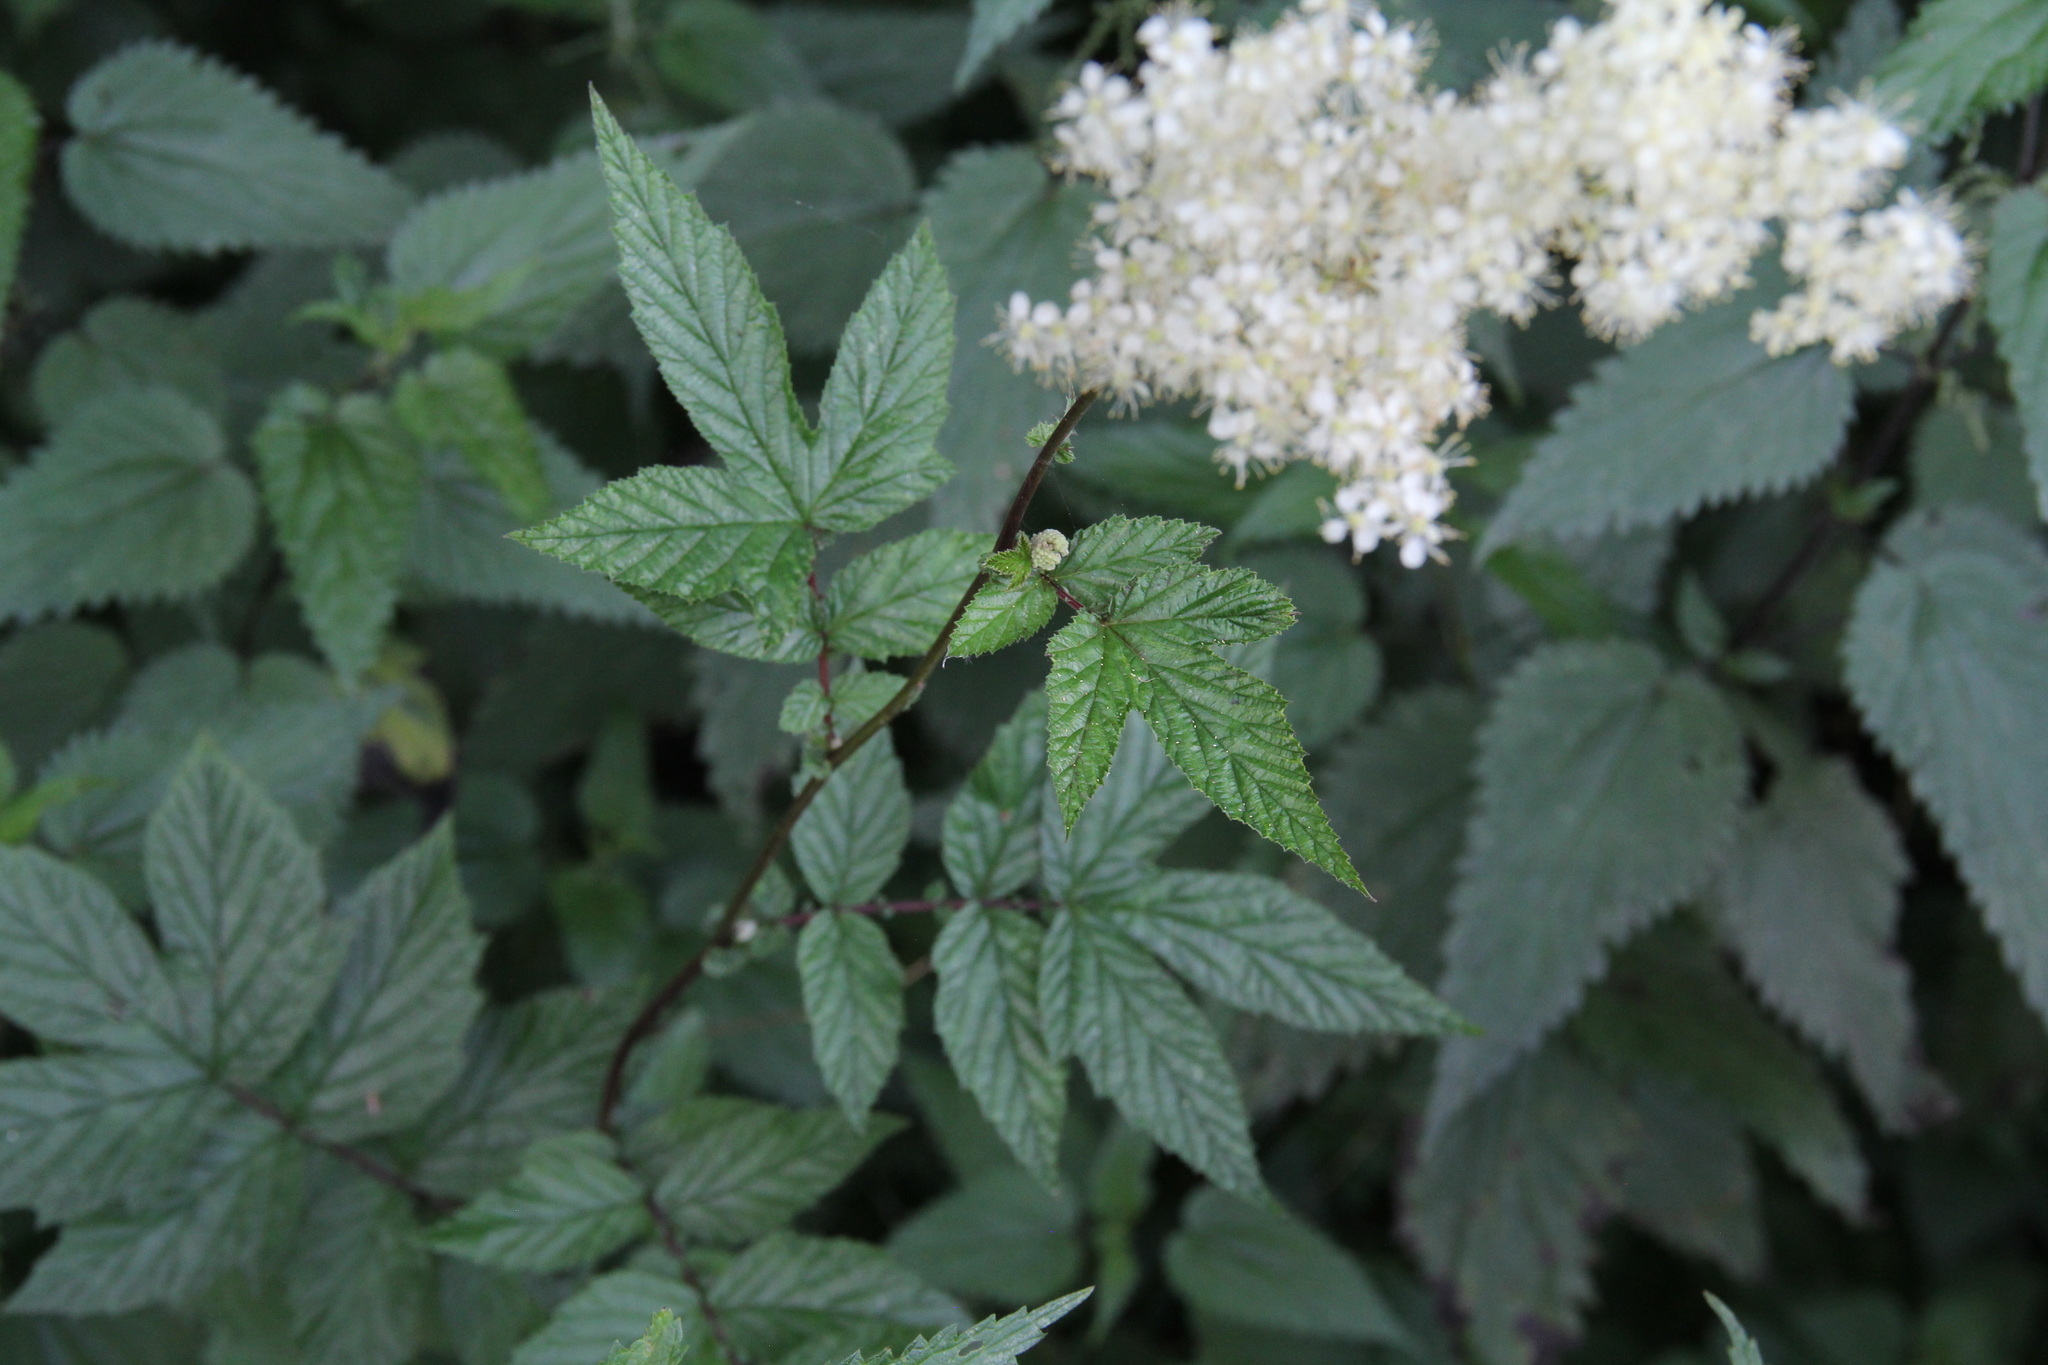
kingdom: Plantae
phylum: Tracheophyta
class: Magnoliopsida
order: Rosales
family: Rosaceae
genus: Filipendula
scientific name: Filipendula ulmaria
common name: Meadowsweet
